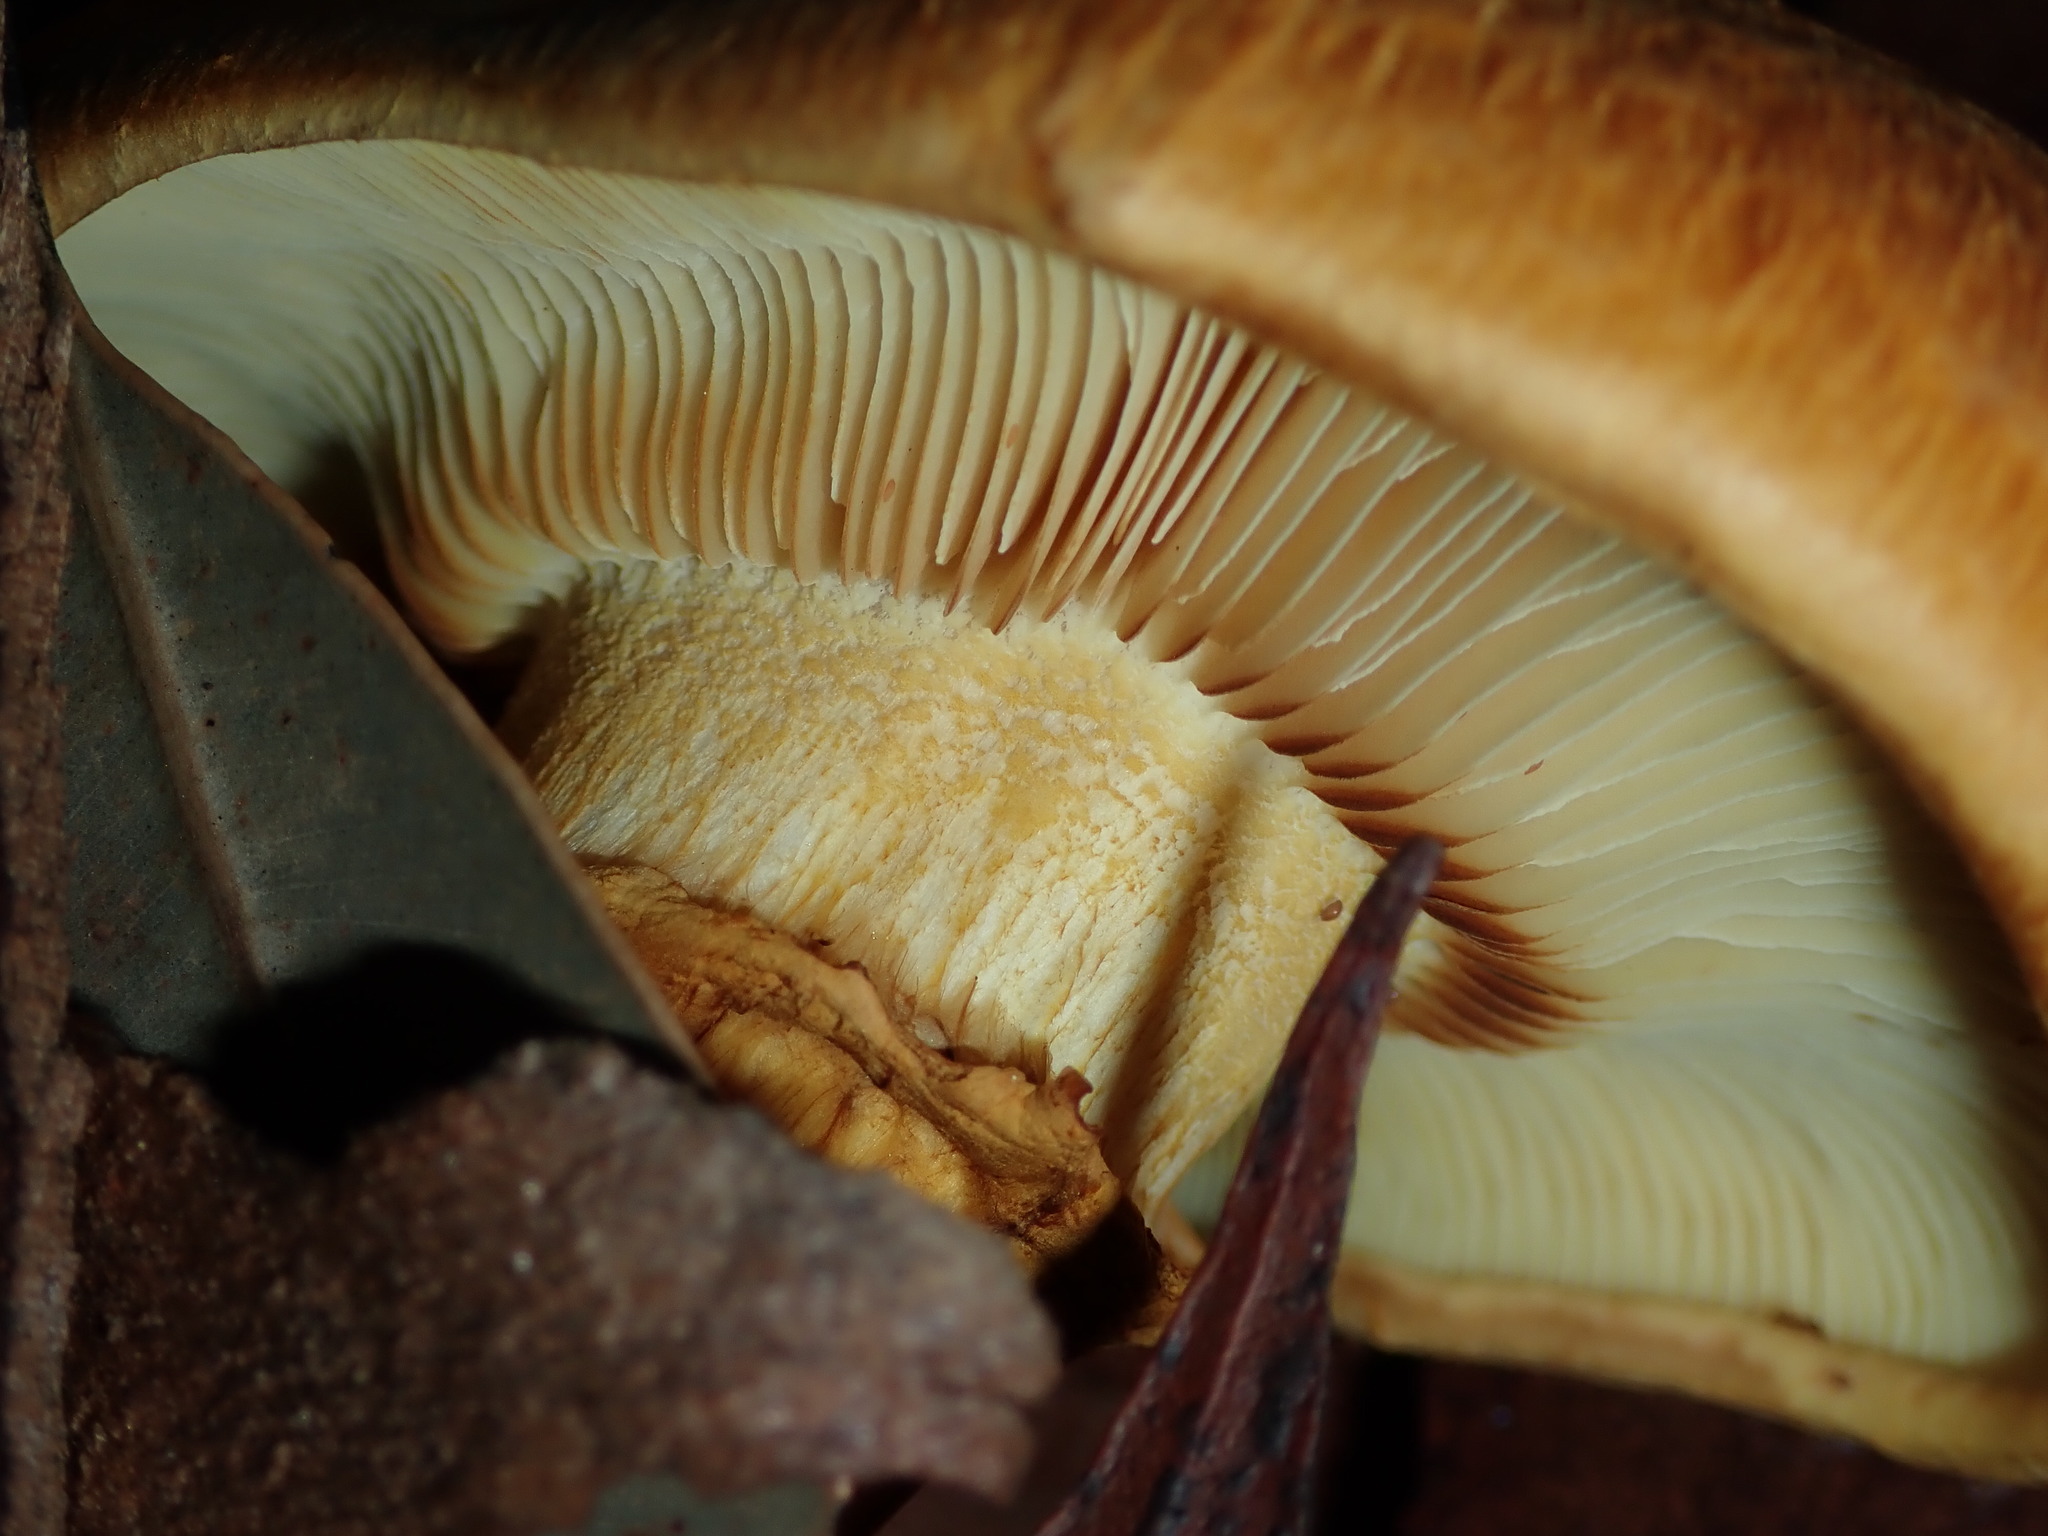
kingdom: Fungi
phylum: Basidiomycota
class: Agaricomycetes
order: Agaricales
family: Hymenogastraceae
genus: Gymnopilus
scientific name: Gymnopilus junonius
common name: Spectacular rustgill
